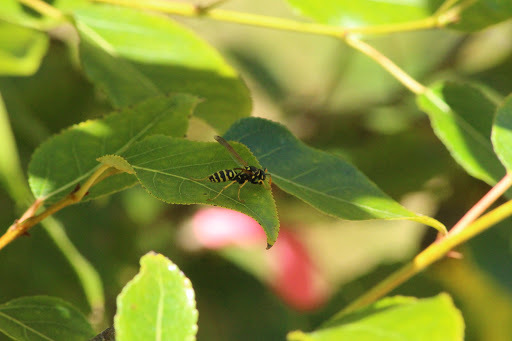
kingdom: Animalia
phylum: Arthropoda
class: Insecta
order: Hymenoptera
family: Eumenidae
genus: Polistes
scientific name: Polistes dominula
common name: Paper wasp
